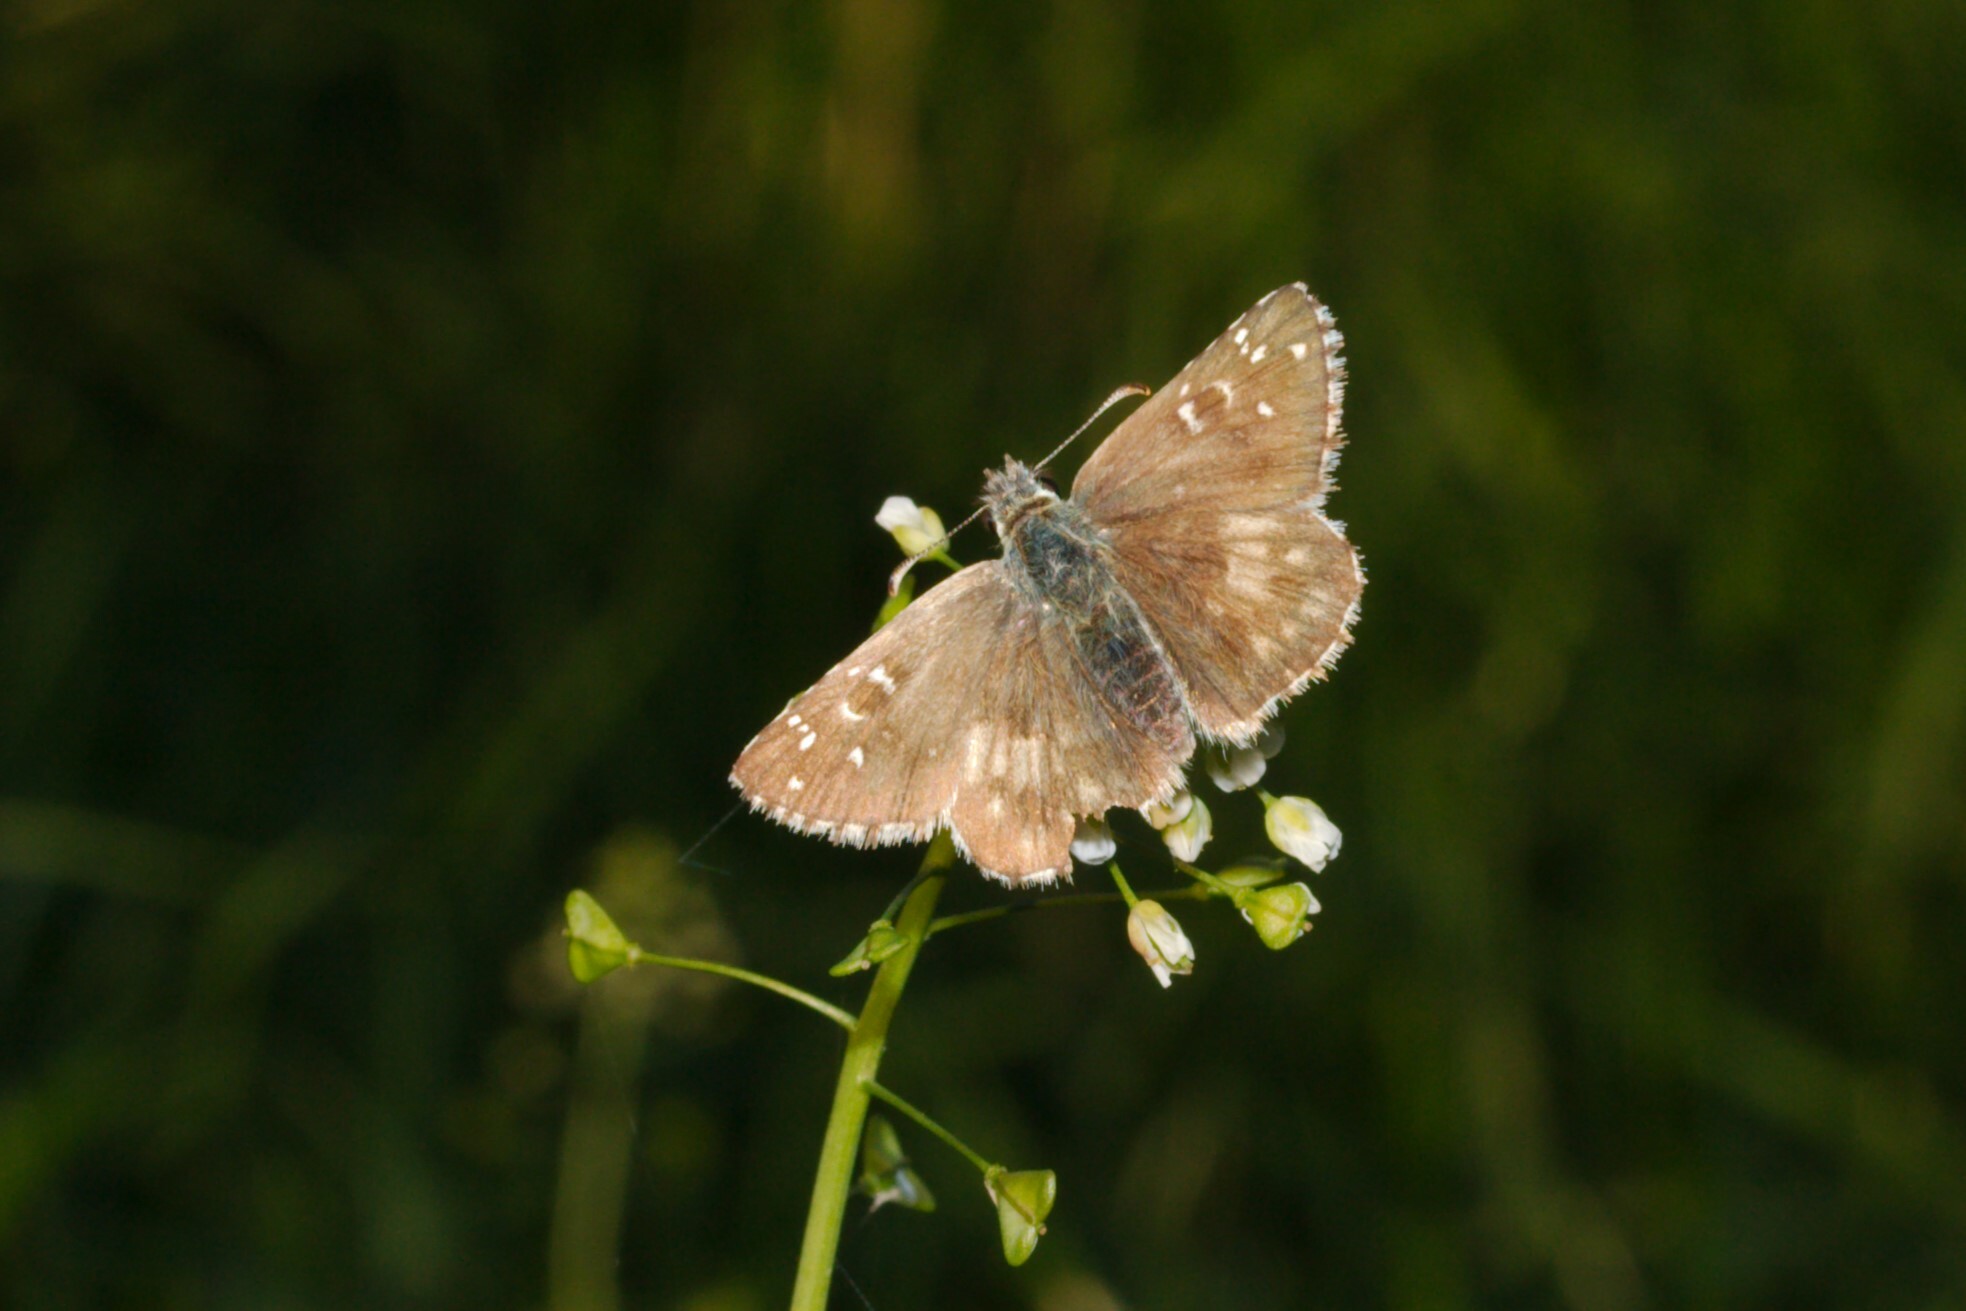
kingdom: Animalia
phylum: Arthropoda
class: Insecta
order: Lepidoptera
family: Hesperiidae
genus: Pyrgus
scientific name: Pyrgus armoricanus
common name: Oberthür's grizzled skipper
